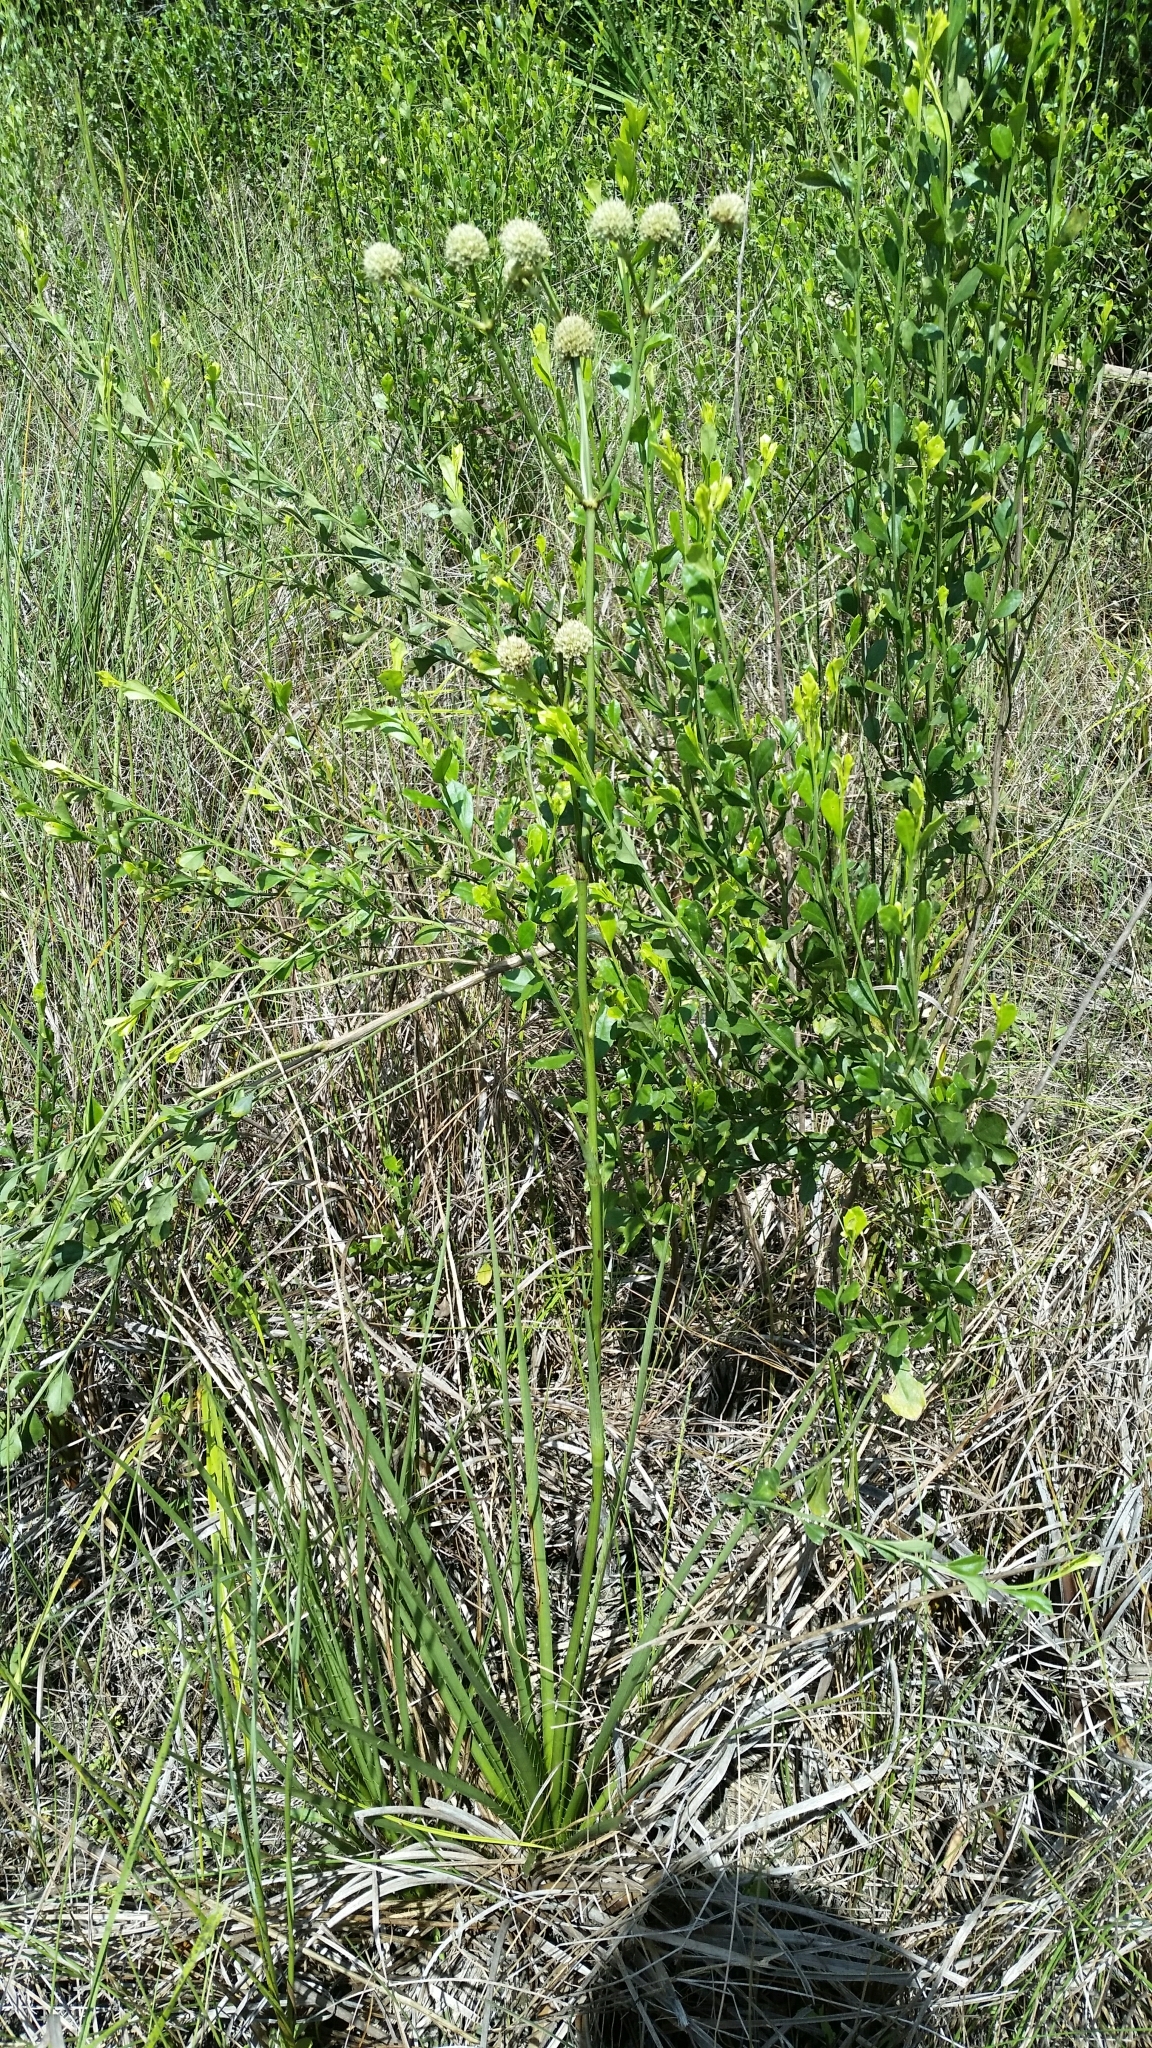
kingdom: Plantae
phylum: Tracheophyta
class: Magnoliopsida
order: Apiales
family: Apiaceae
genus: Eryngium
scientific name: Eryngium yuccifolium
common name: Button eryngo
